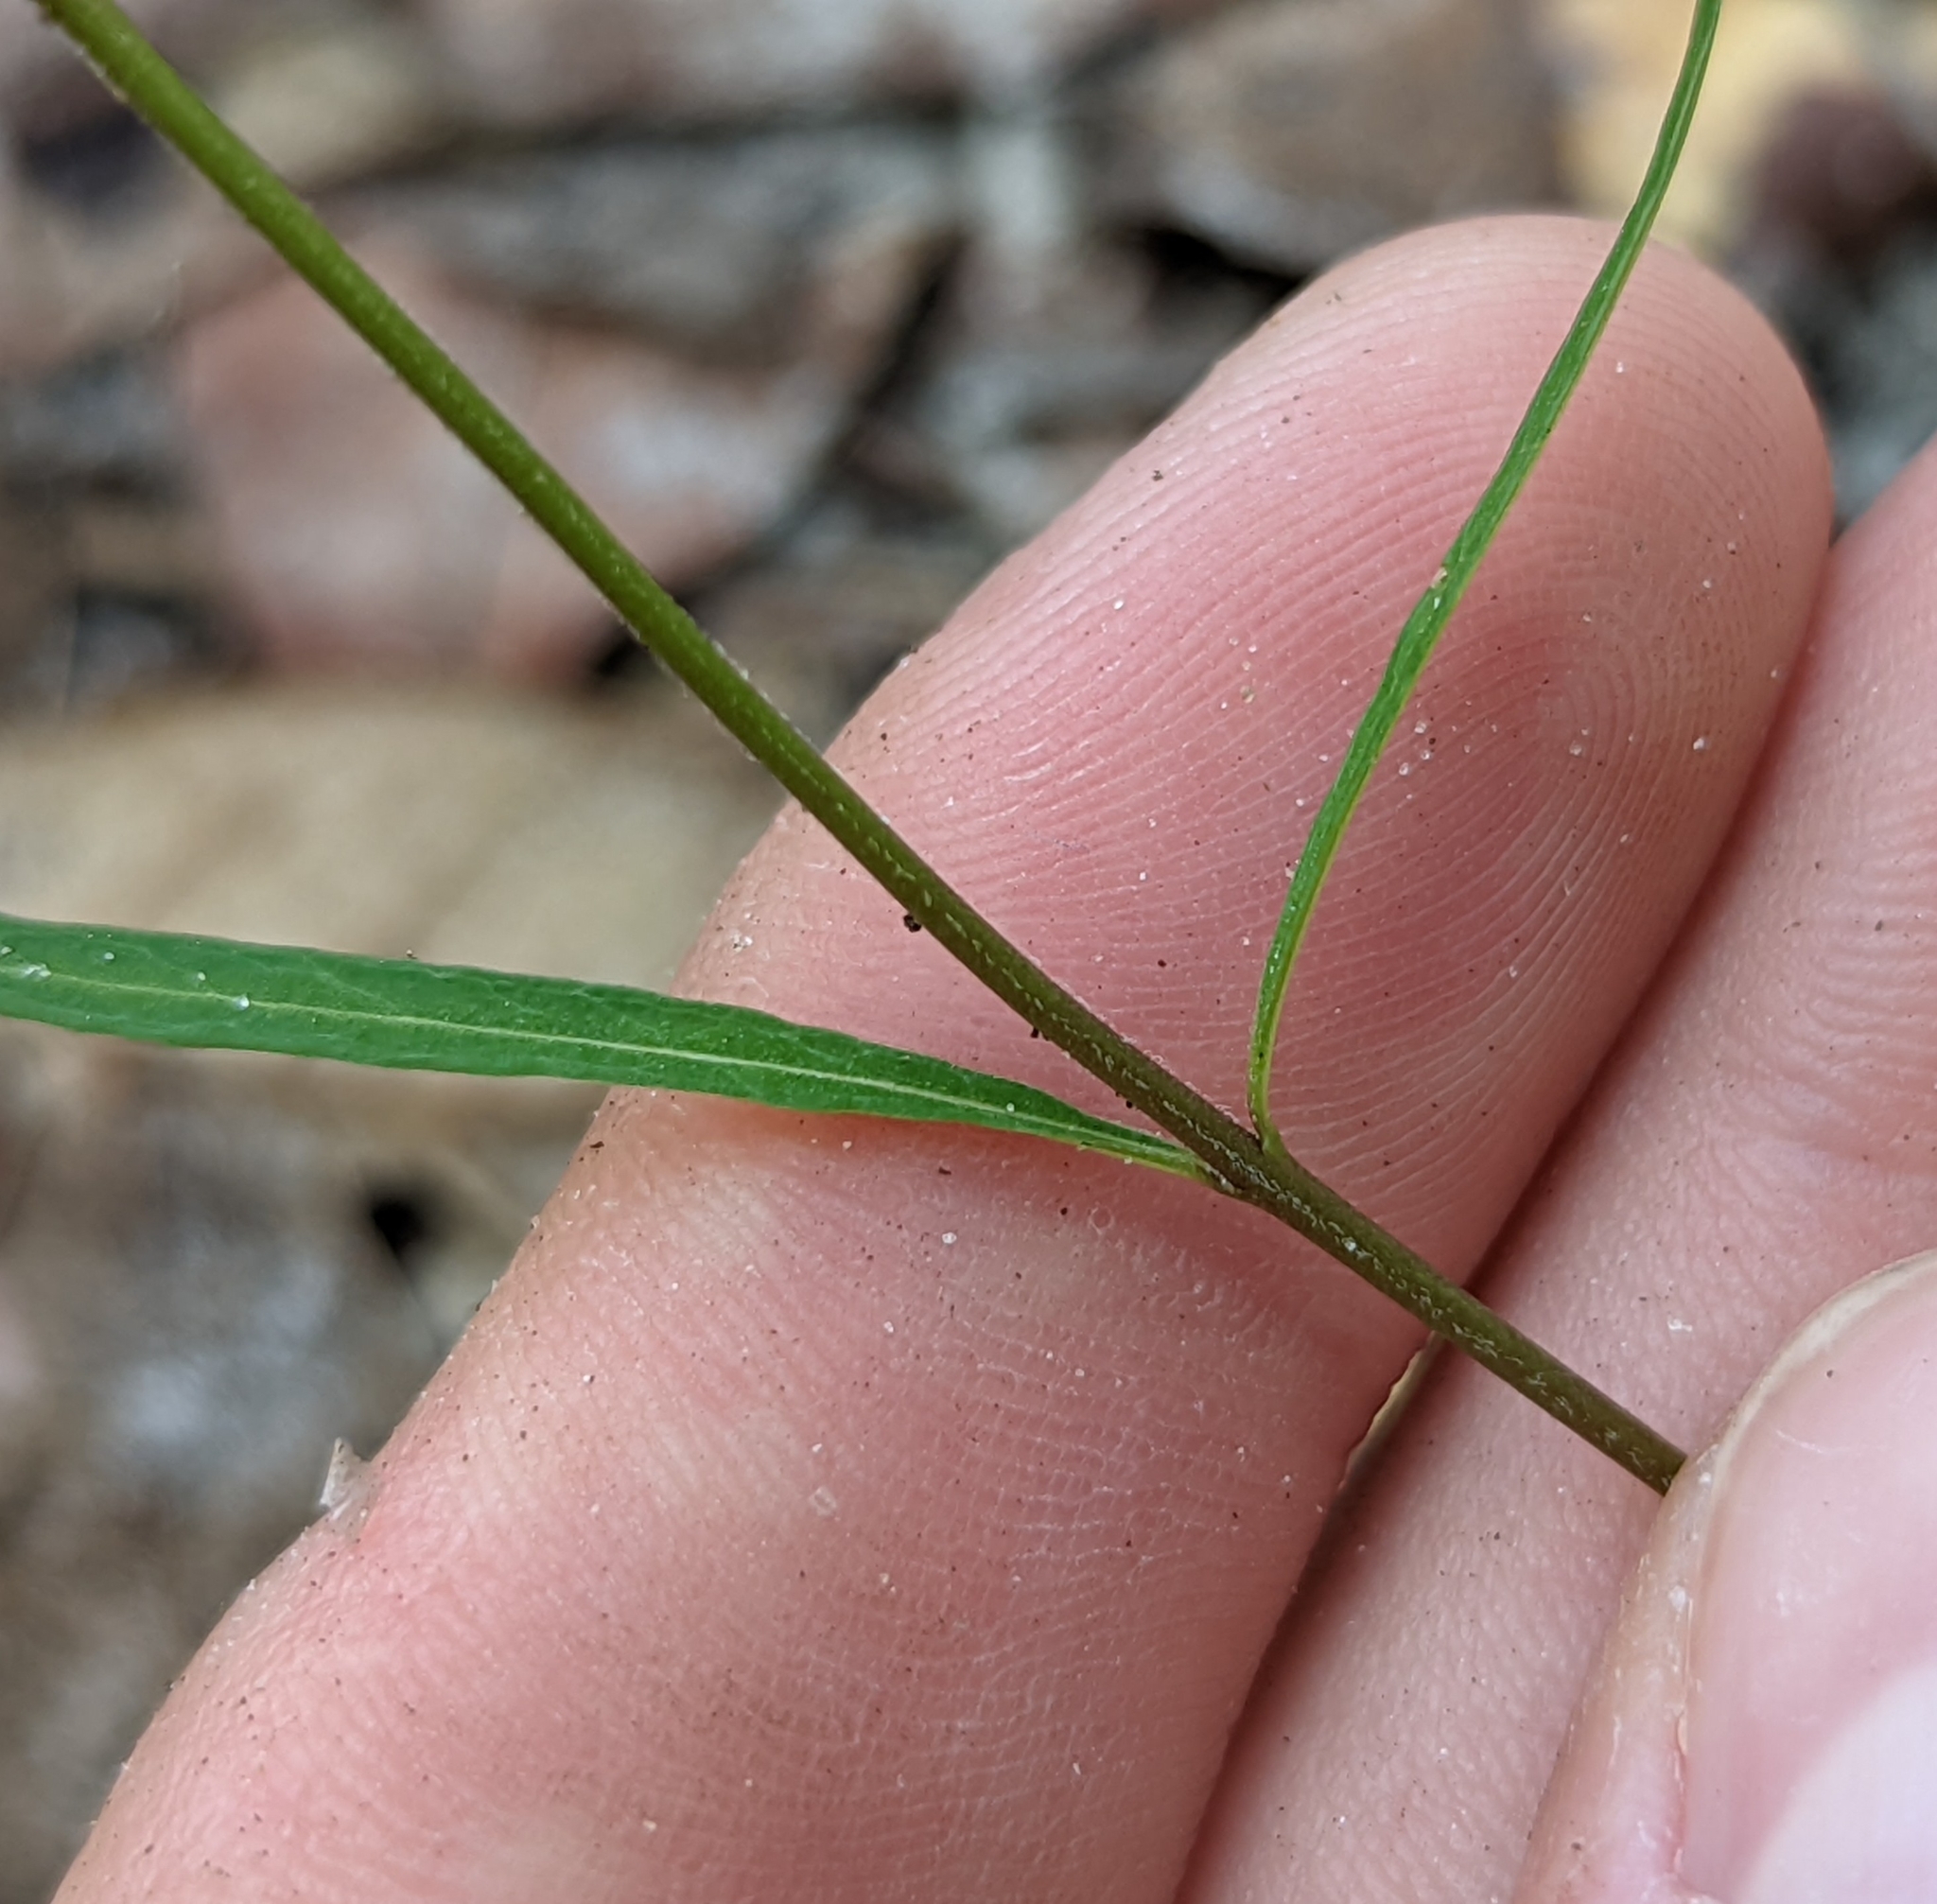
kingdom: Plantae
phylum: Tracheophyta
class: Magnoliopsida
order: Gentianales
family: Apocynaceae
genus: Asclepias
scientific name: Asclepias verticillata
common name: Eastern whorled milkweed
